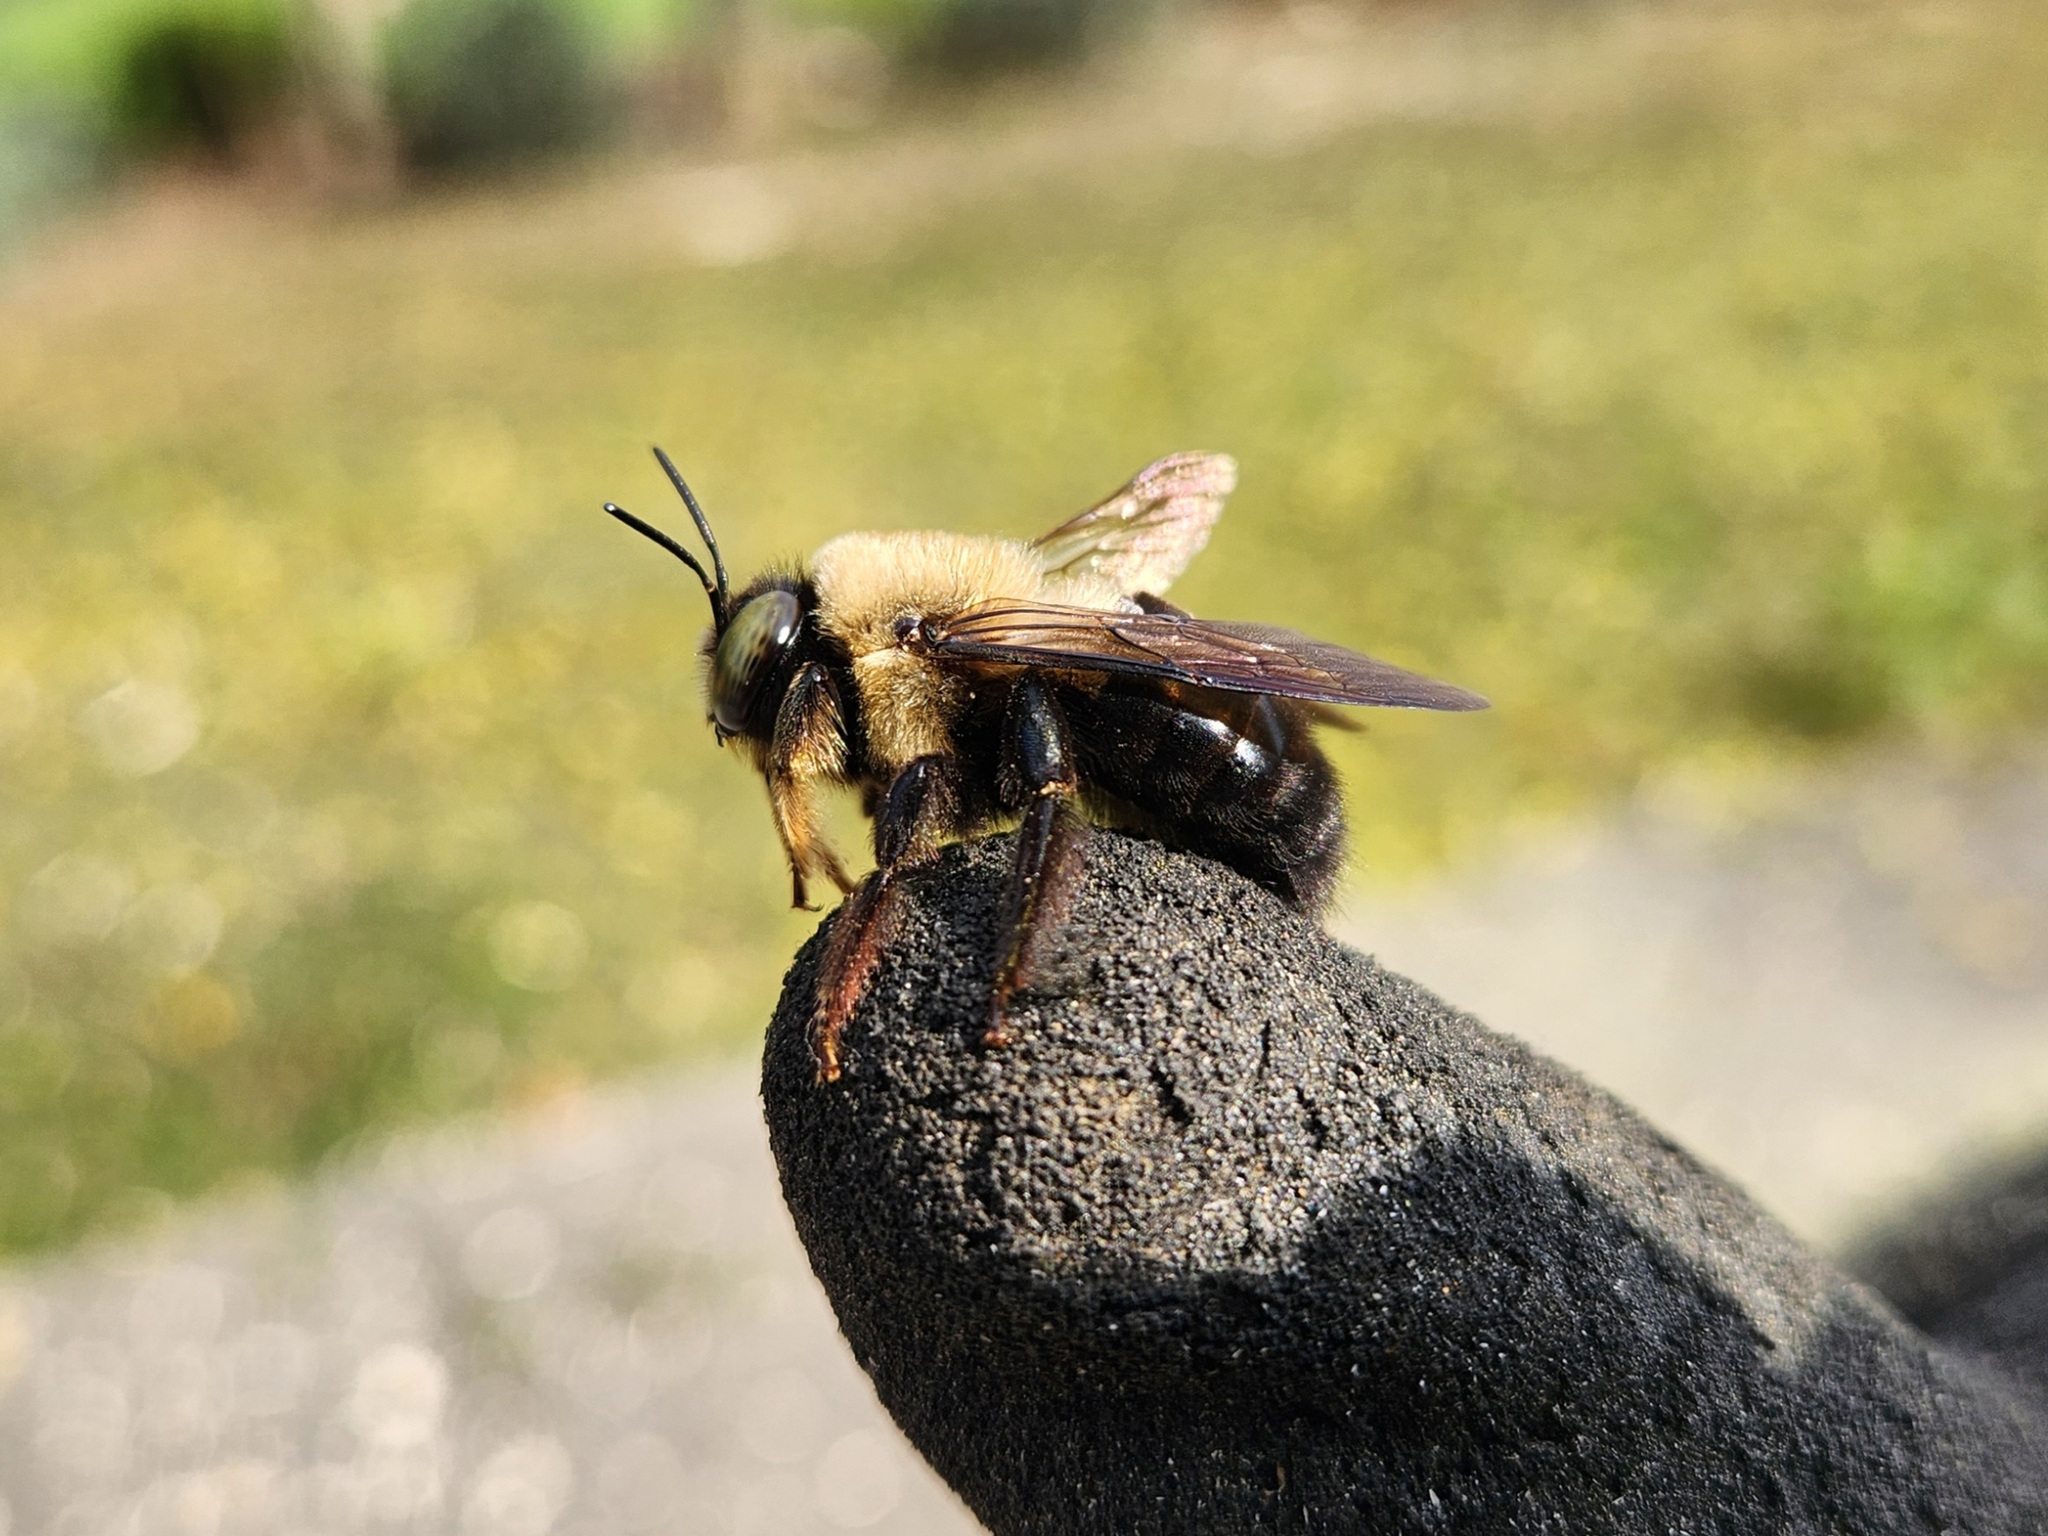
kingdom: Animalia
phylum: Arthropoda
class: Insecta
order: Hymenoptera
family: Apidae
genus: Xylocopa
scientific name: Xylocopa virginica
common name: Carpenter bee
